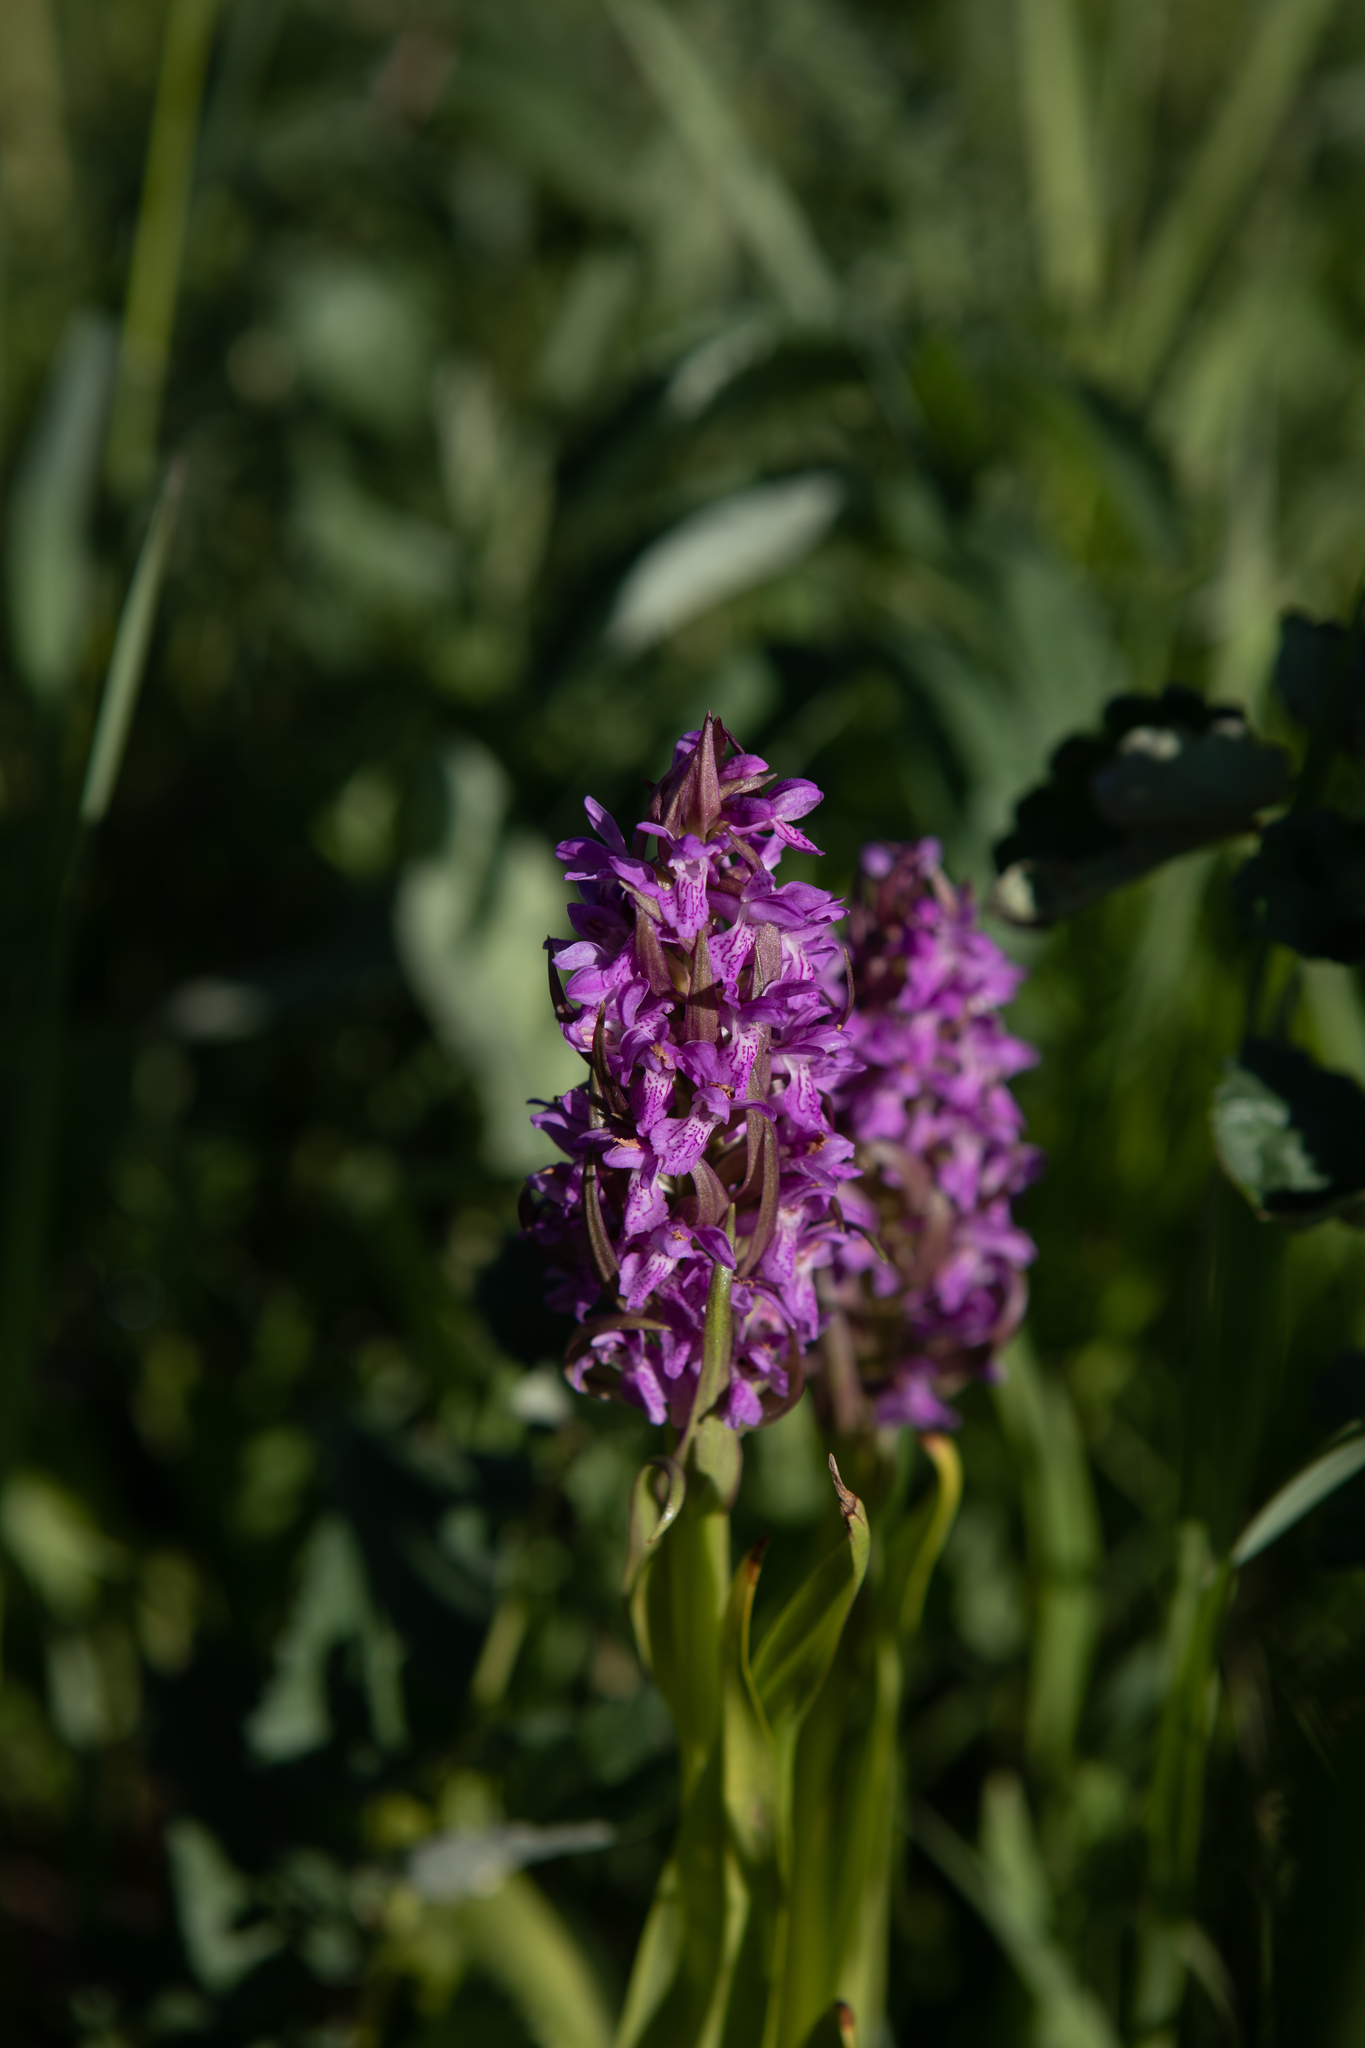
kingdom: Plantae
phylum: Tracheophyta
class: Liliopsida
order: Asparagales
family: Orchidaceae
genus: Dactylorhiza
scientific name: Dactylorhiza incarnata
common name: Early marsh-orchid
